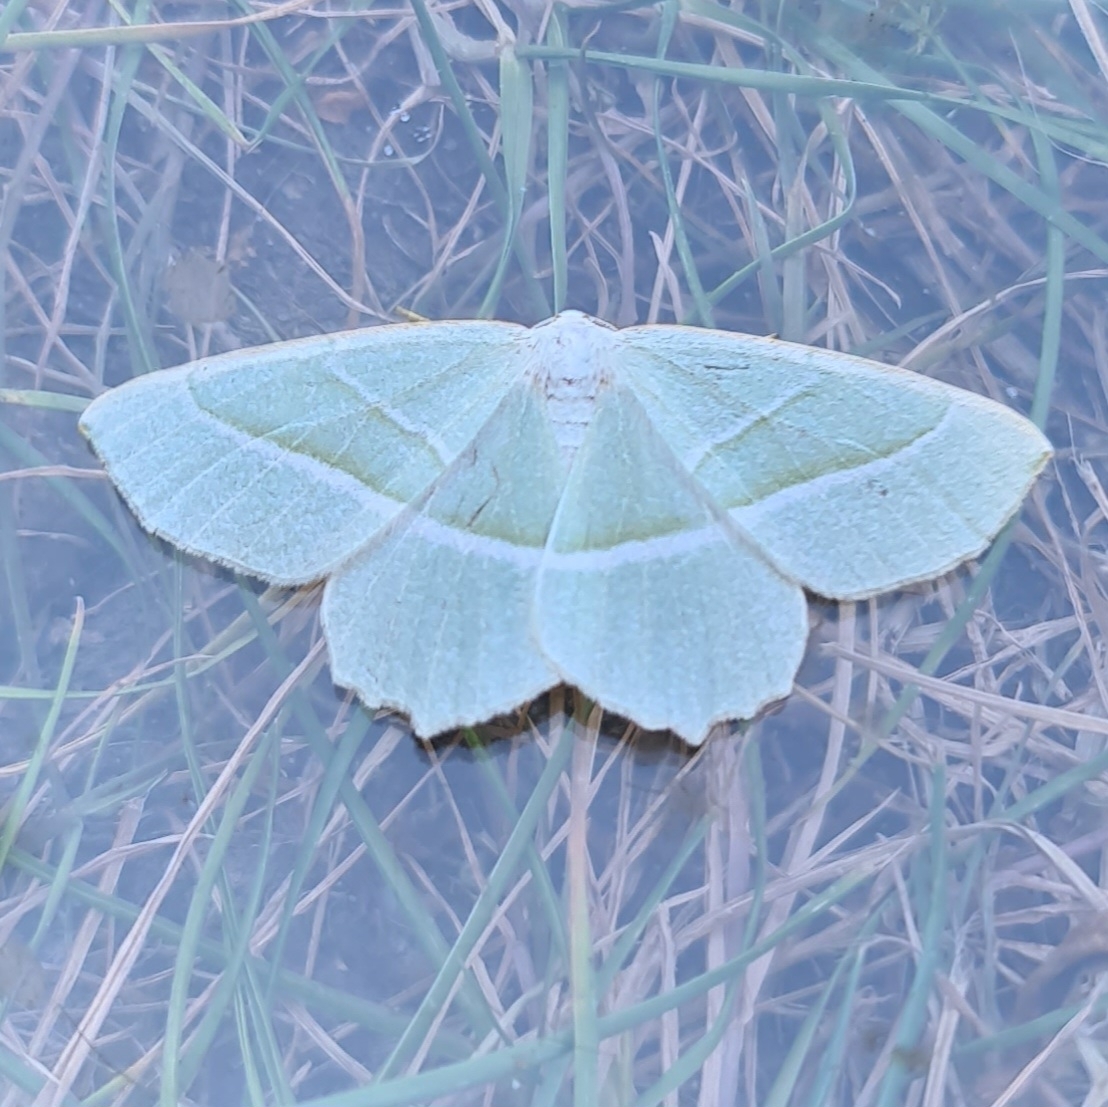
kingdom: Animalia
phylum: Arthropoda
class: Insecta
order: Lepidoptera
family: Geometridae
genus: Campaea
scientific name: Campaea margaritaria
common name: Light emerald
